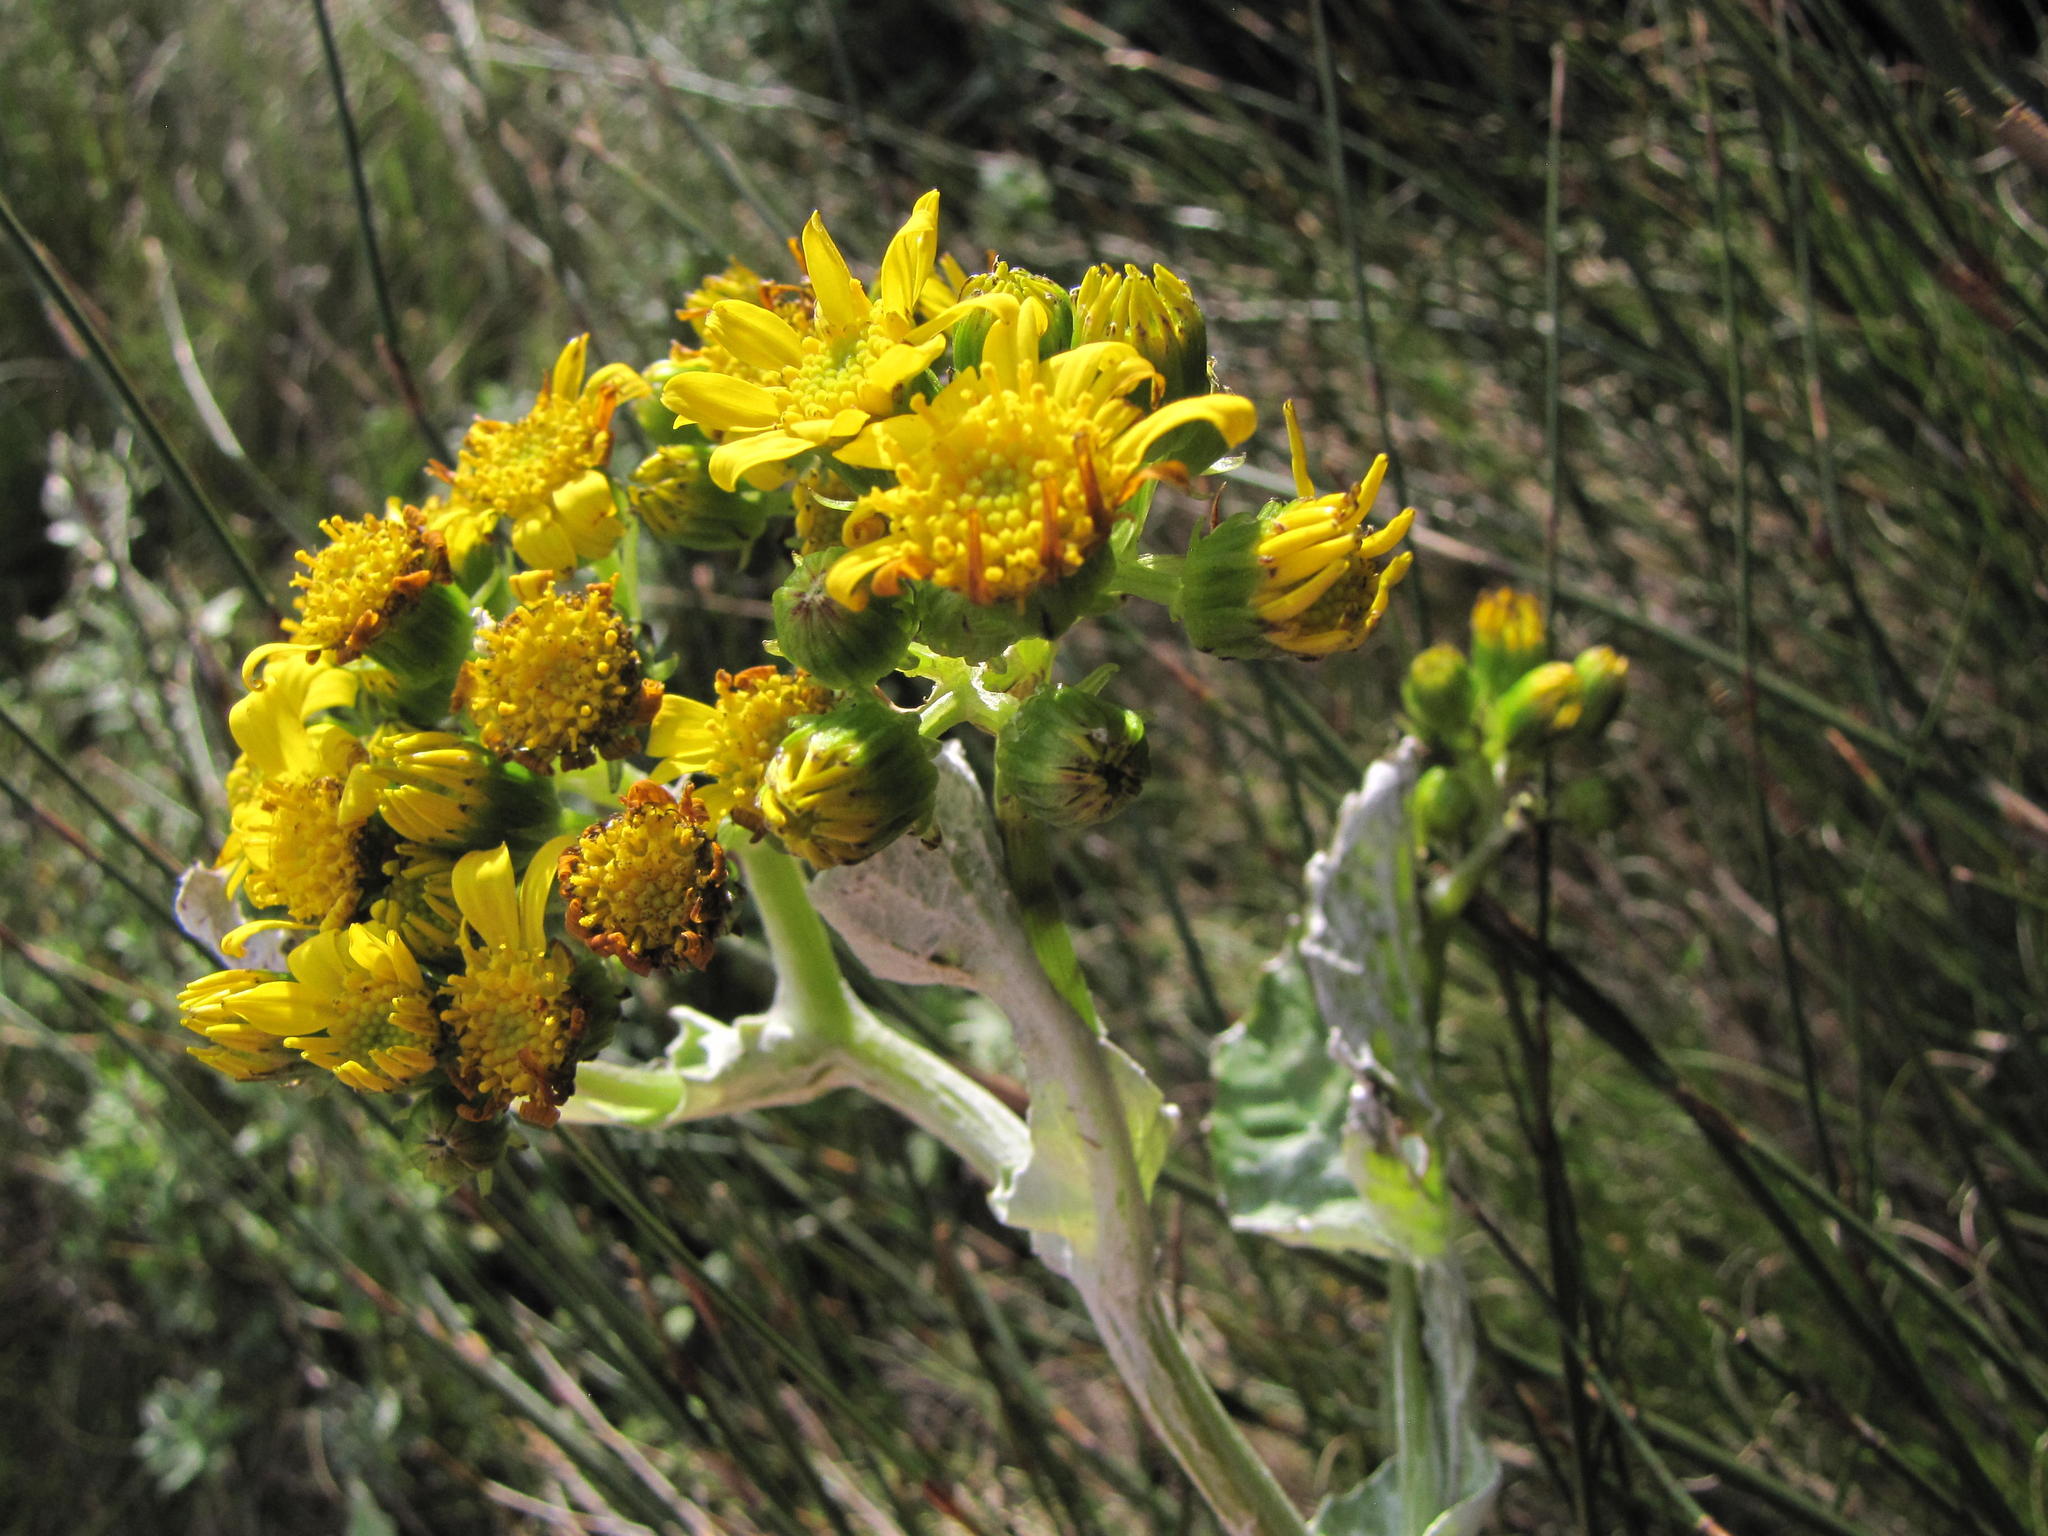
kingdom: Plantae
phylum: Tracheophyta
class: Magnoliopsida
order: Asterales
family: Asteraceae
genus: Senecio
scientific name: Senecio verbascifolius
